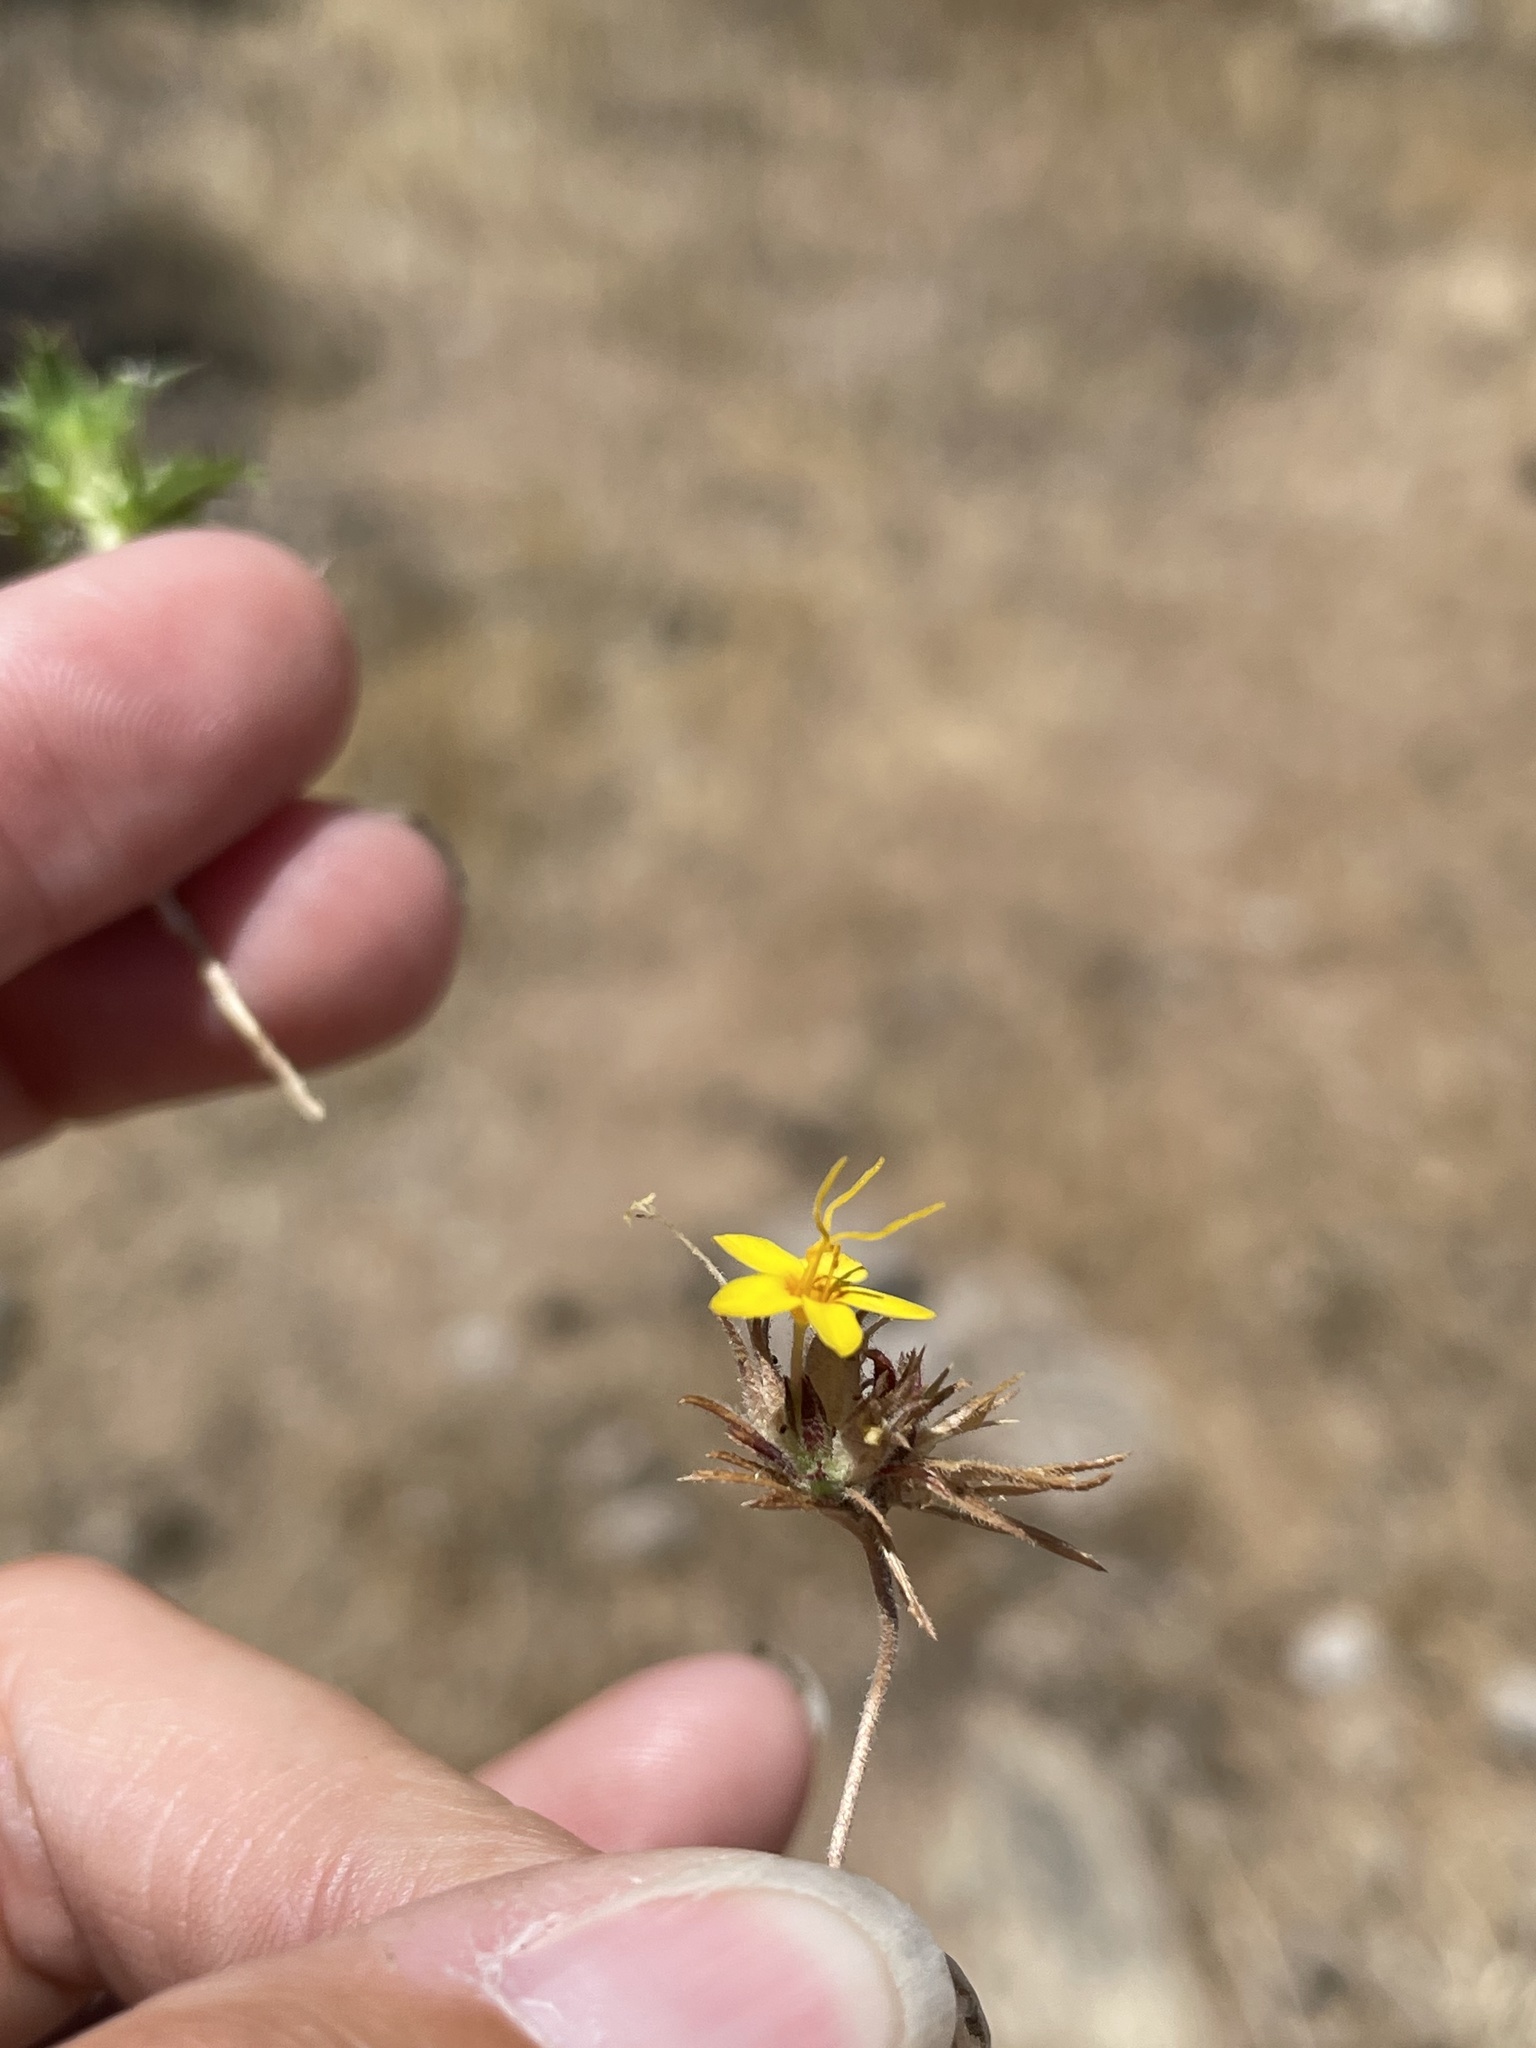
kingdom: Plantae
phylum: Tracheophyta
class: Magnoliopsida
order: Ericales
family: Polemoniaceae
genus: Leptosiphon
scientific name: Leptosiphon parviflorus
